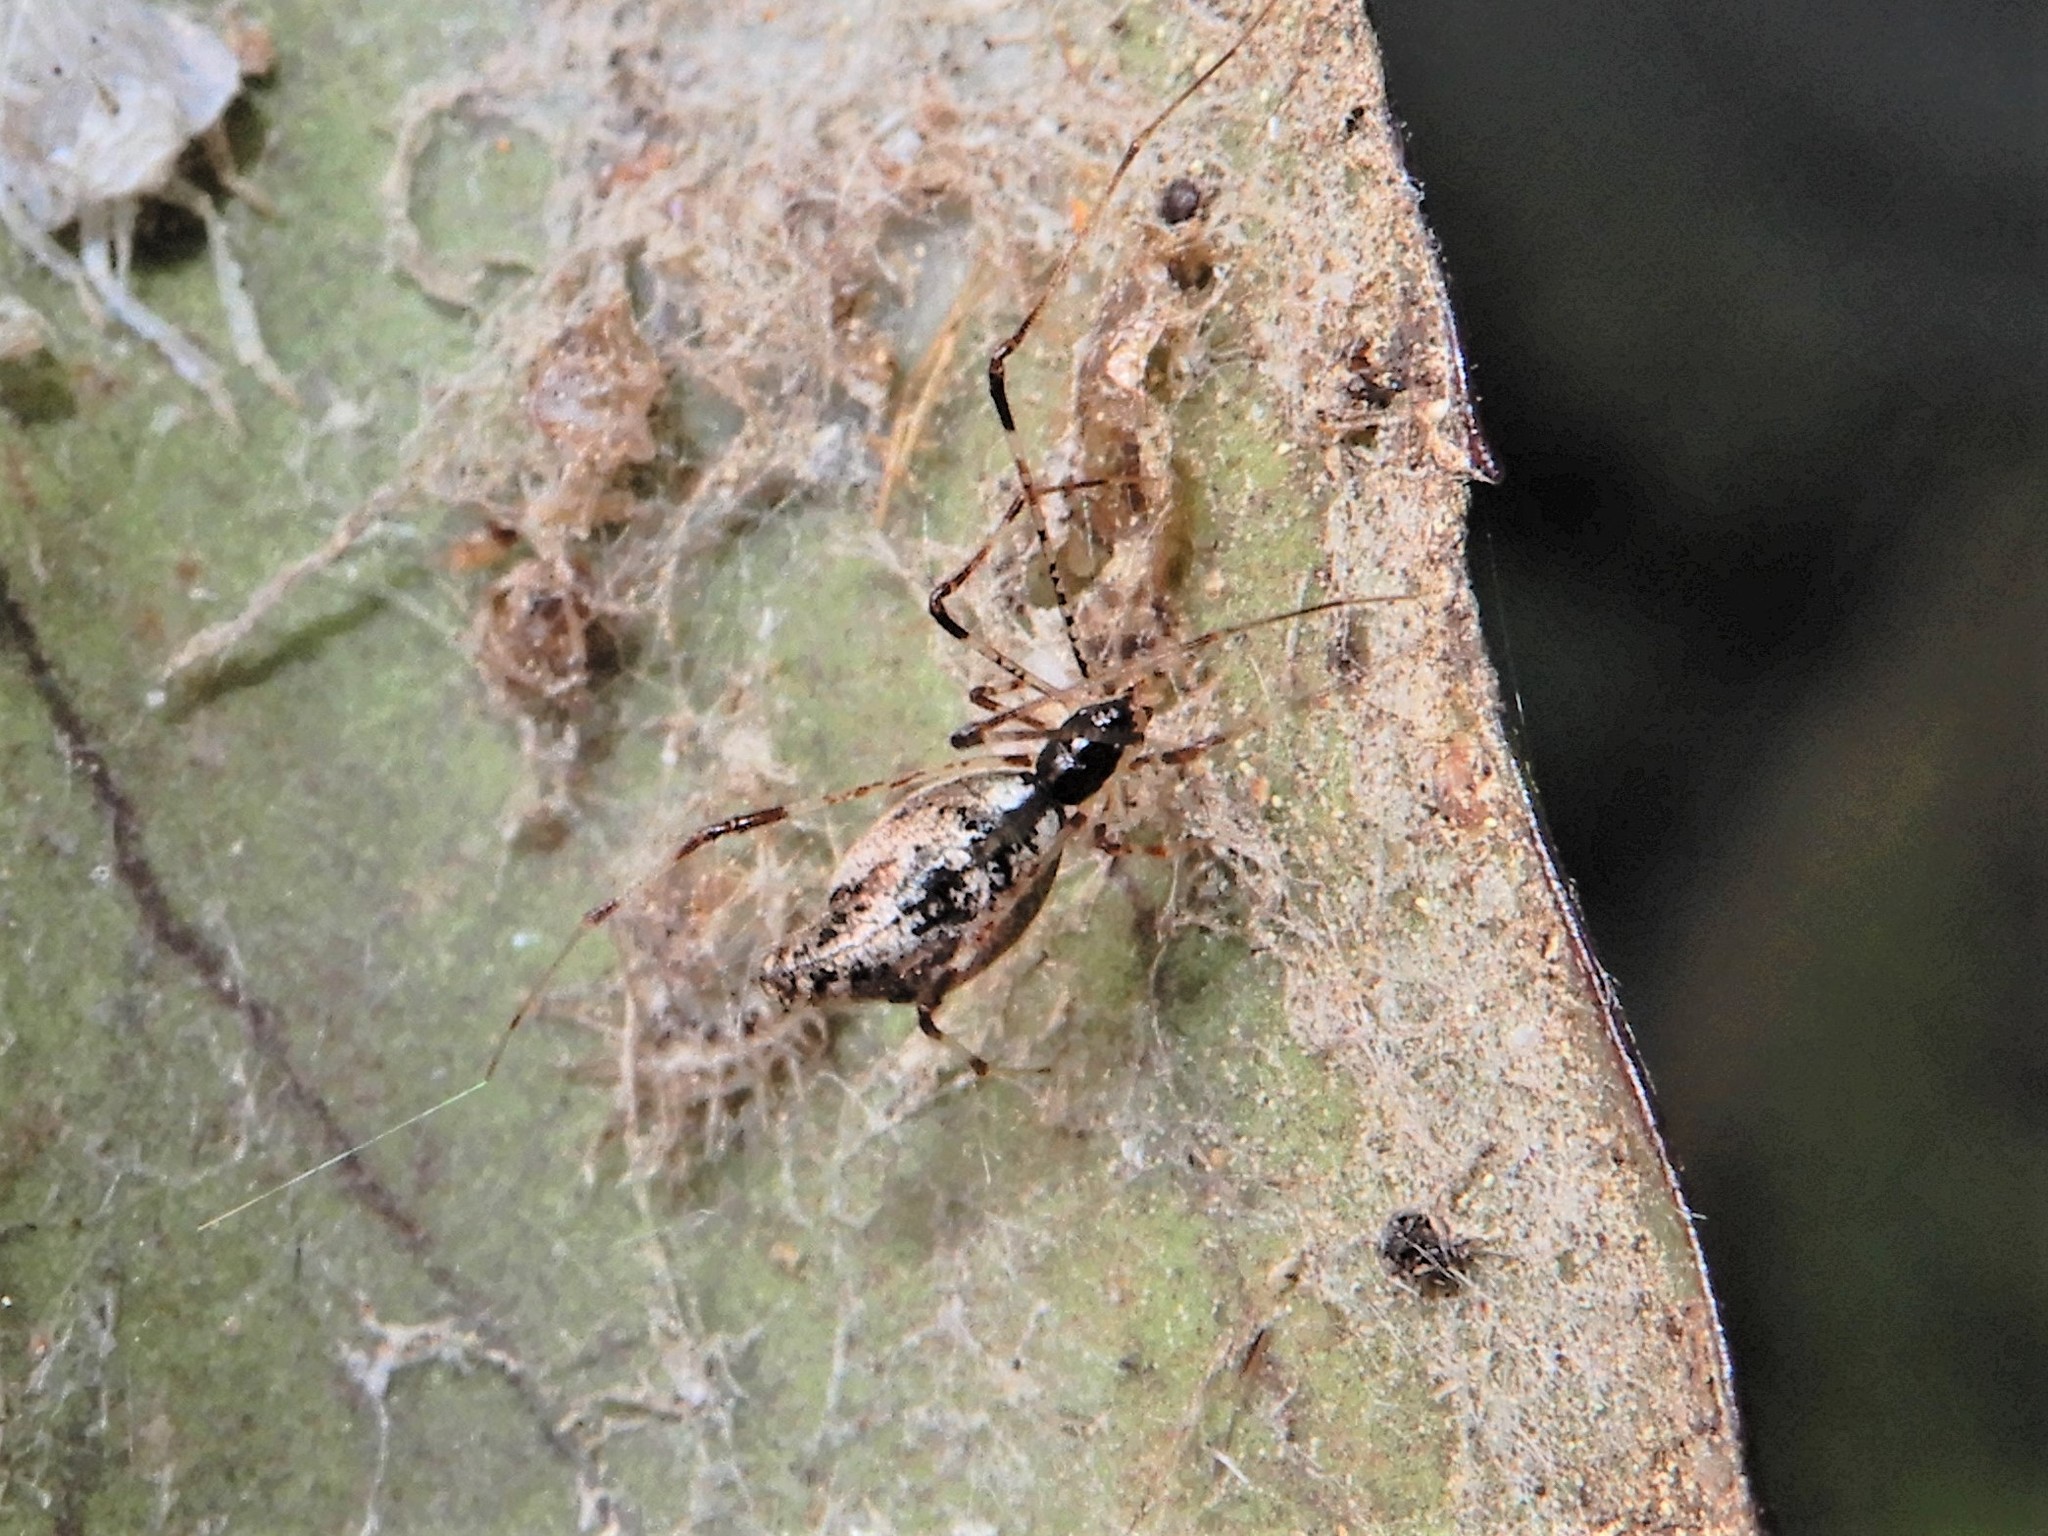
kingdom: Animalia
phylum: Arthropoda
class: Arachnida
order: Araneae
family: Theridiidae
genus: Rhomphaea
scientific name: Rhomphaea urquharti
